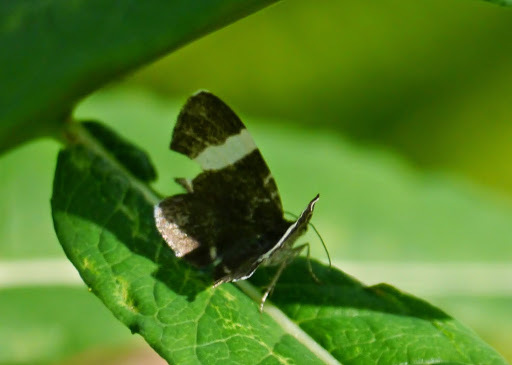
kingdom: Animalia
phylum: Arthropoda
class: Insecta
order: Lepidoptera
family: Geometridae
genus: Trichodezia
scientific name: Trichodezia albovittata
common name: White striped black
